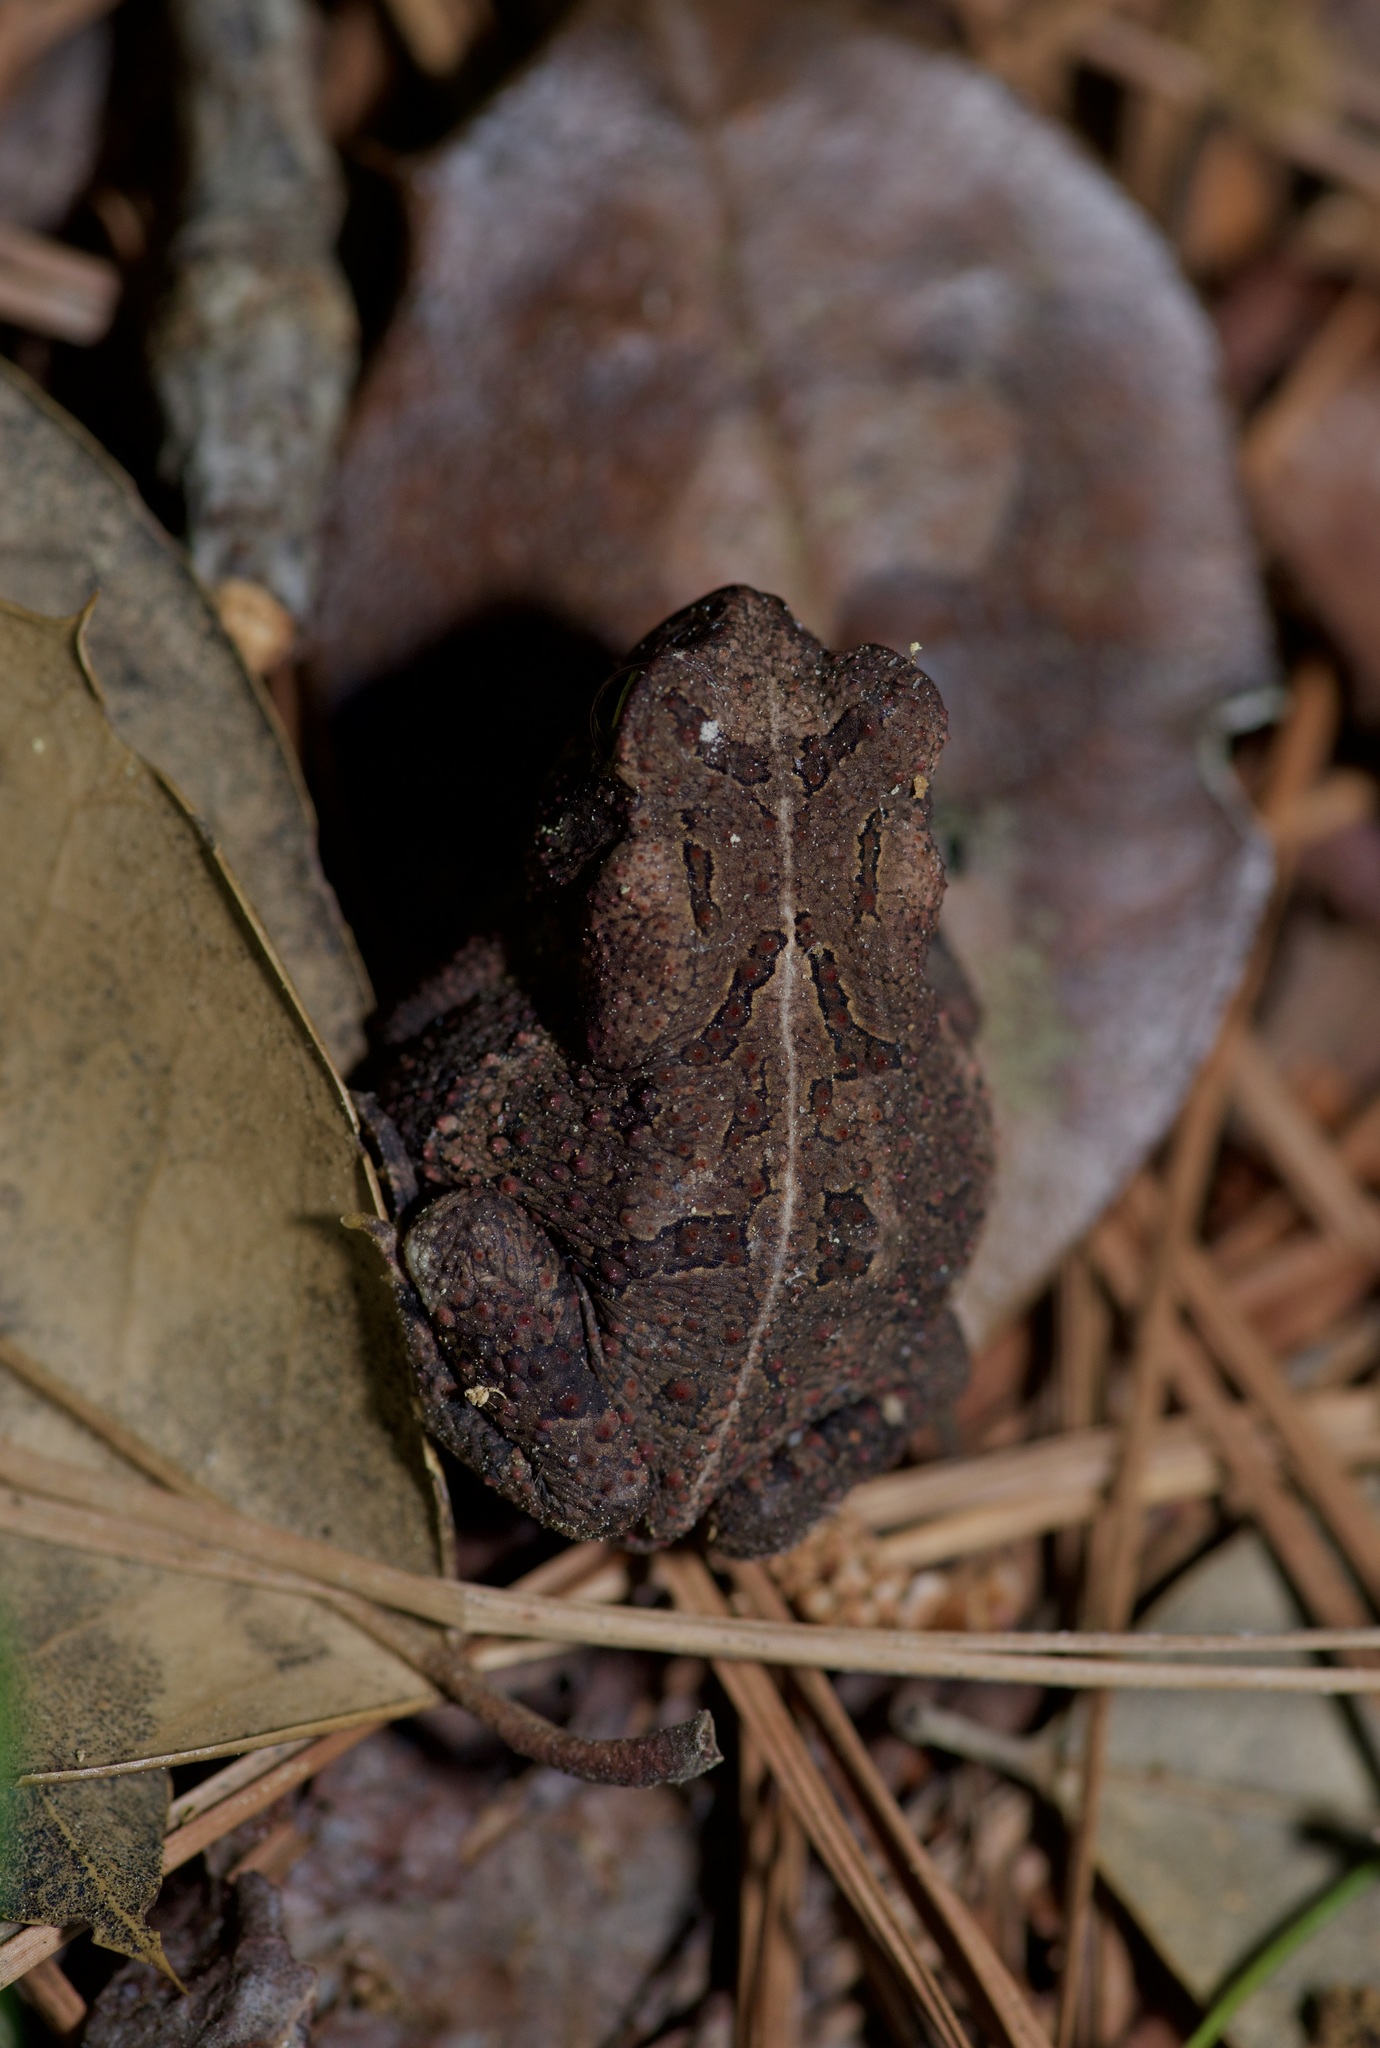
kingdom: Animalia
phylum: Chordata
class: Amphibia
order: Anura
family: Bufonidae
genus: Incilius
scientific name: Incilius nebulifer
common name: Gulf coast toad
